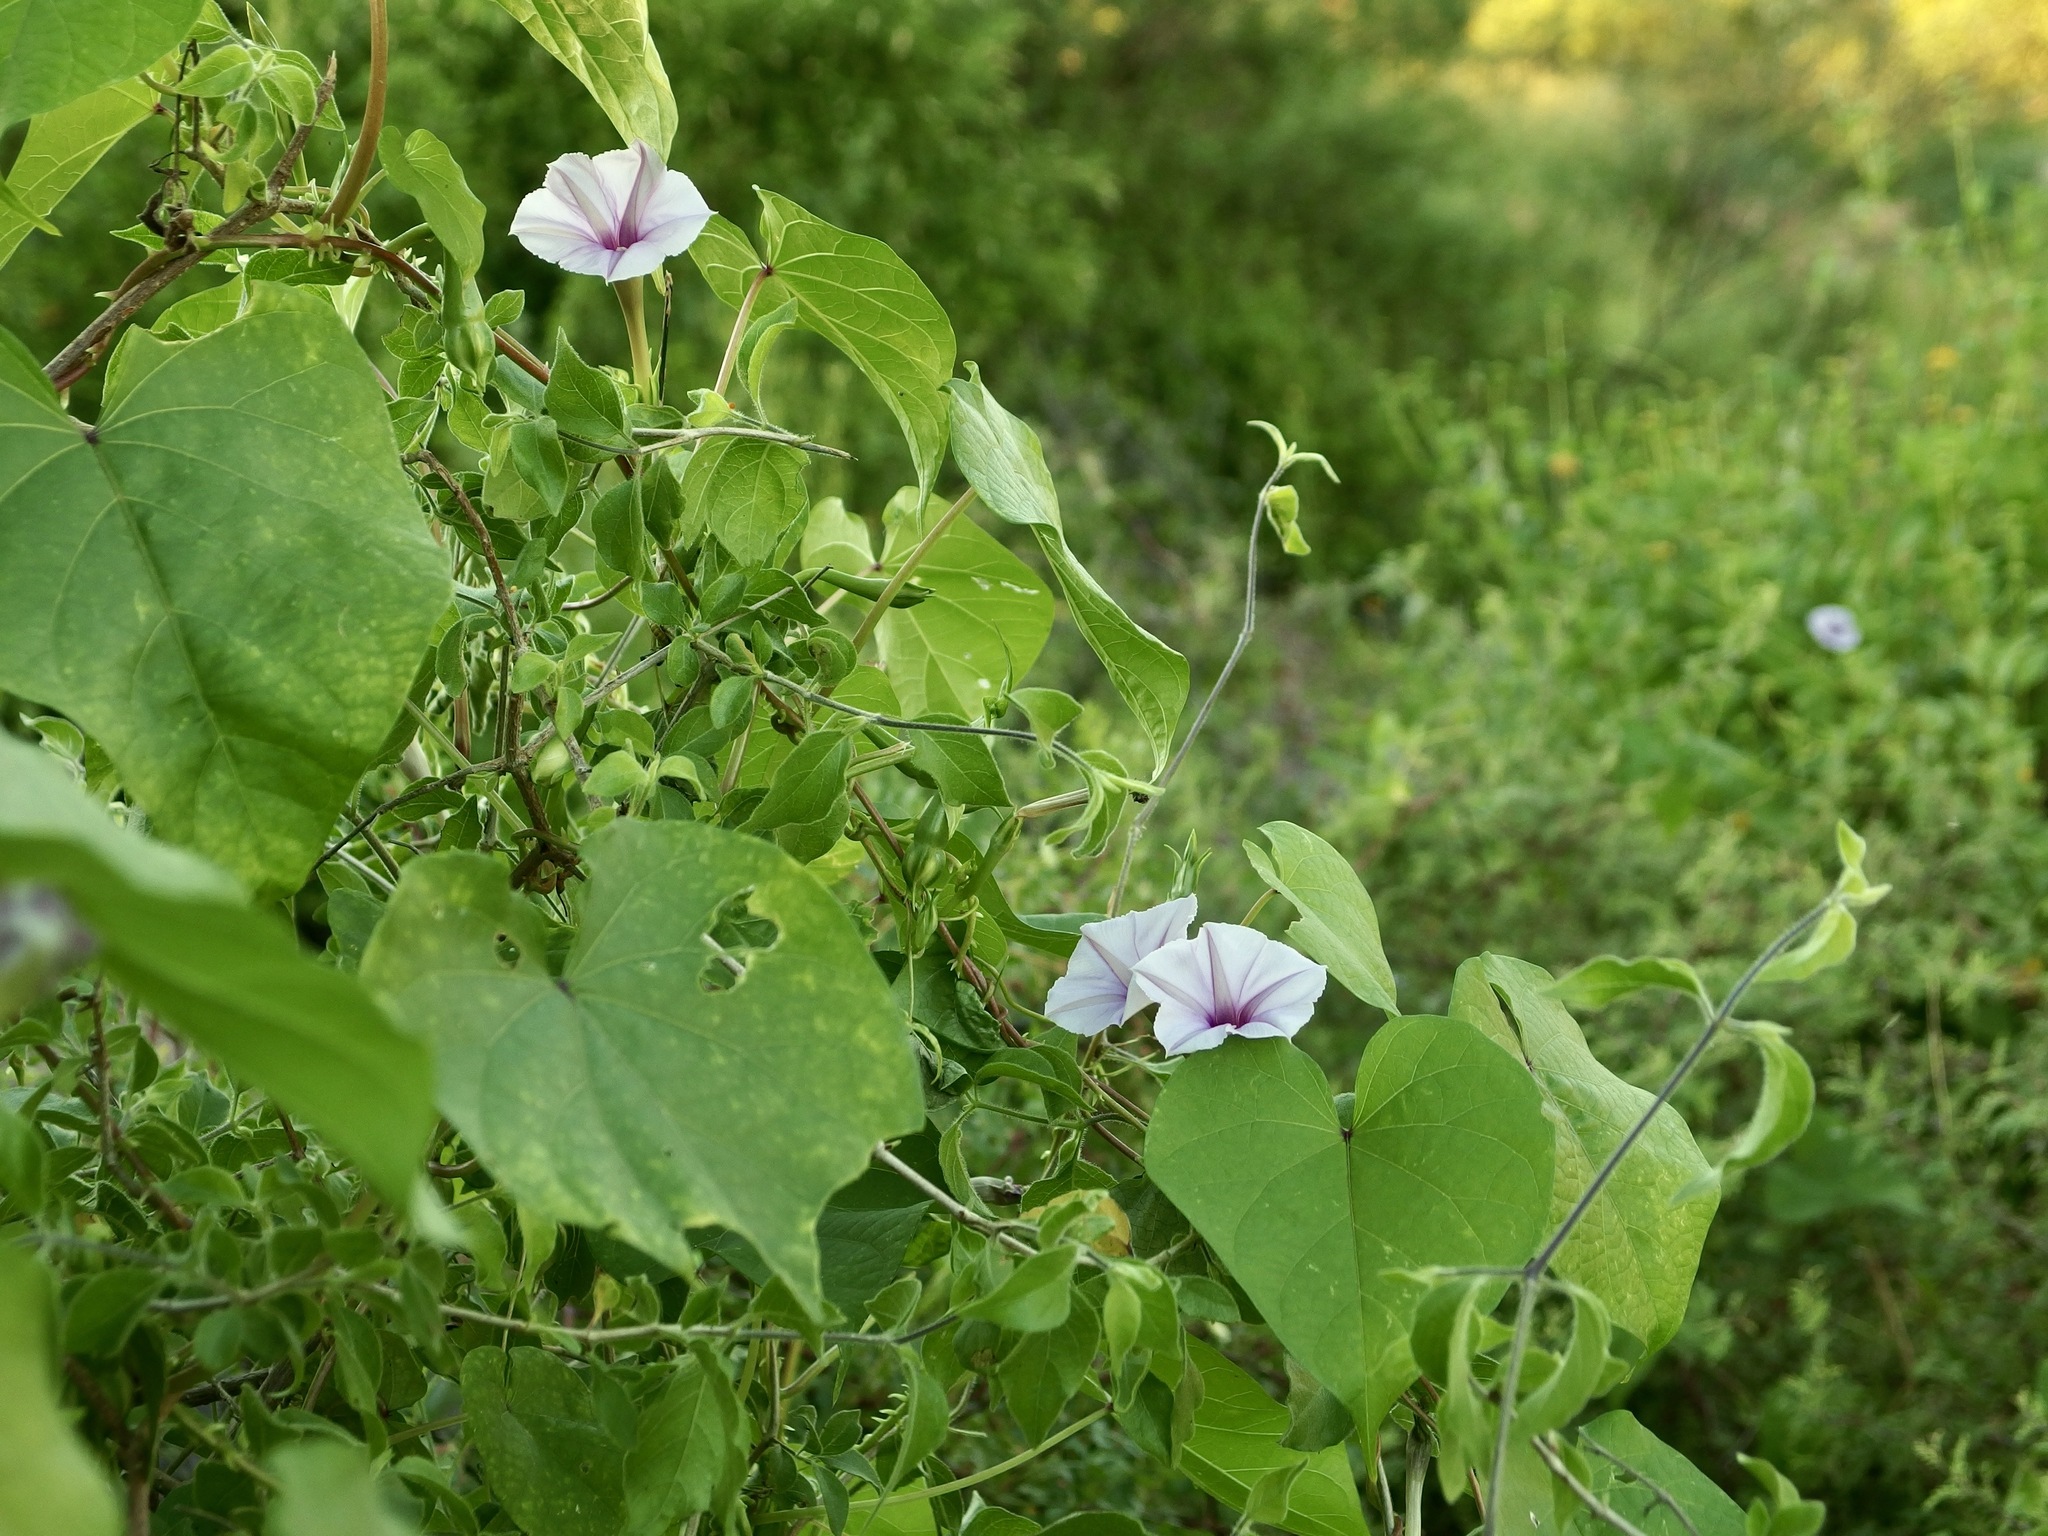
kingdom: Plantae
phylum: Tracheophyta
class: Magnoliopsida
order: Solanales
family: Convolvulaceae
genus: Ipomoea
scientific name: Ipomoea muricata
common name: Lilac-bell
